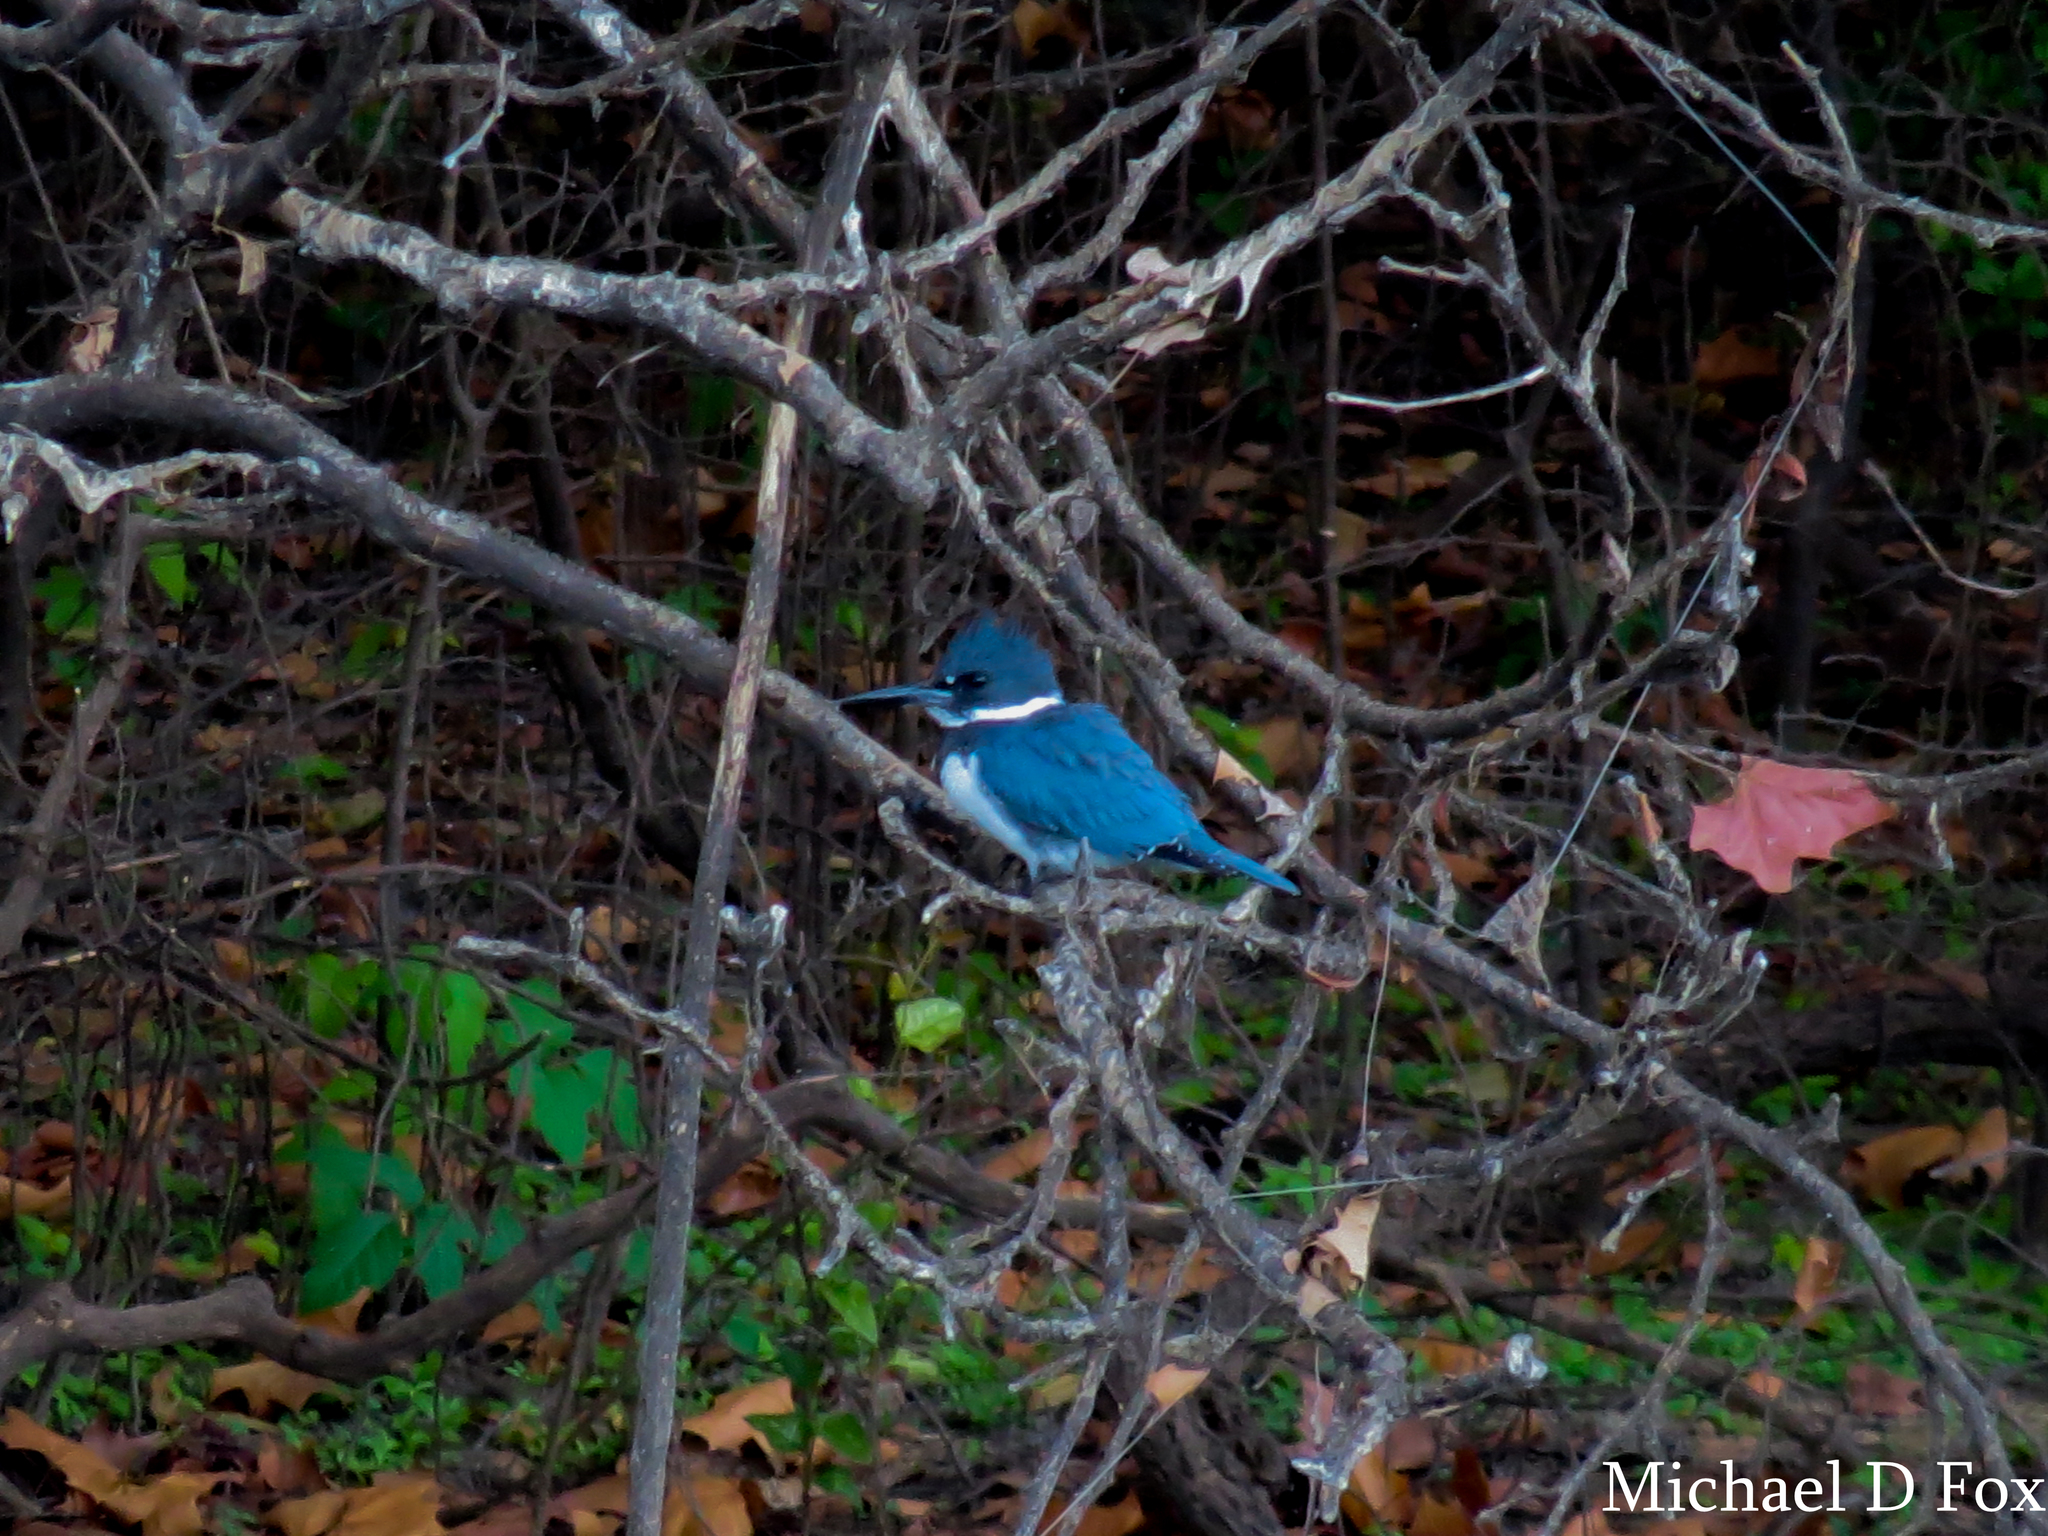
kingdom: Animalia
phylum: Chordata
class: Aves
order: Coraciiformes
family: Alcedinidae
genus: Megaceryle
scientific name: Megaceryle alcyon
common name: Belted kingfisher
